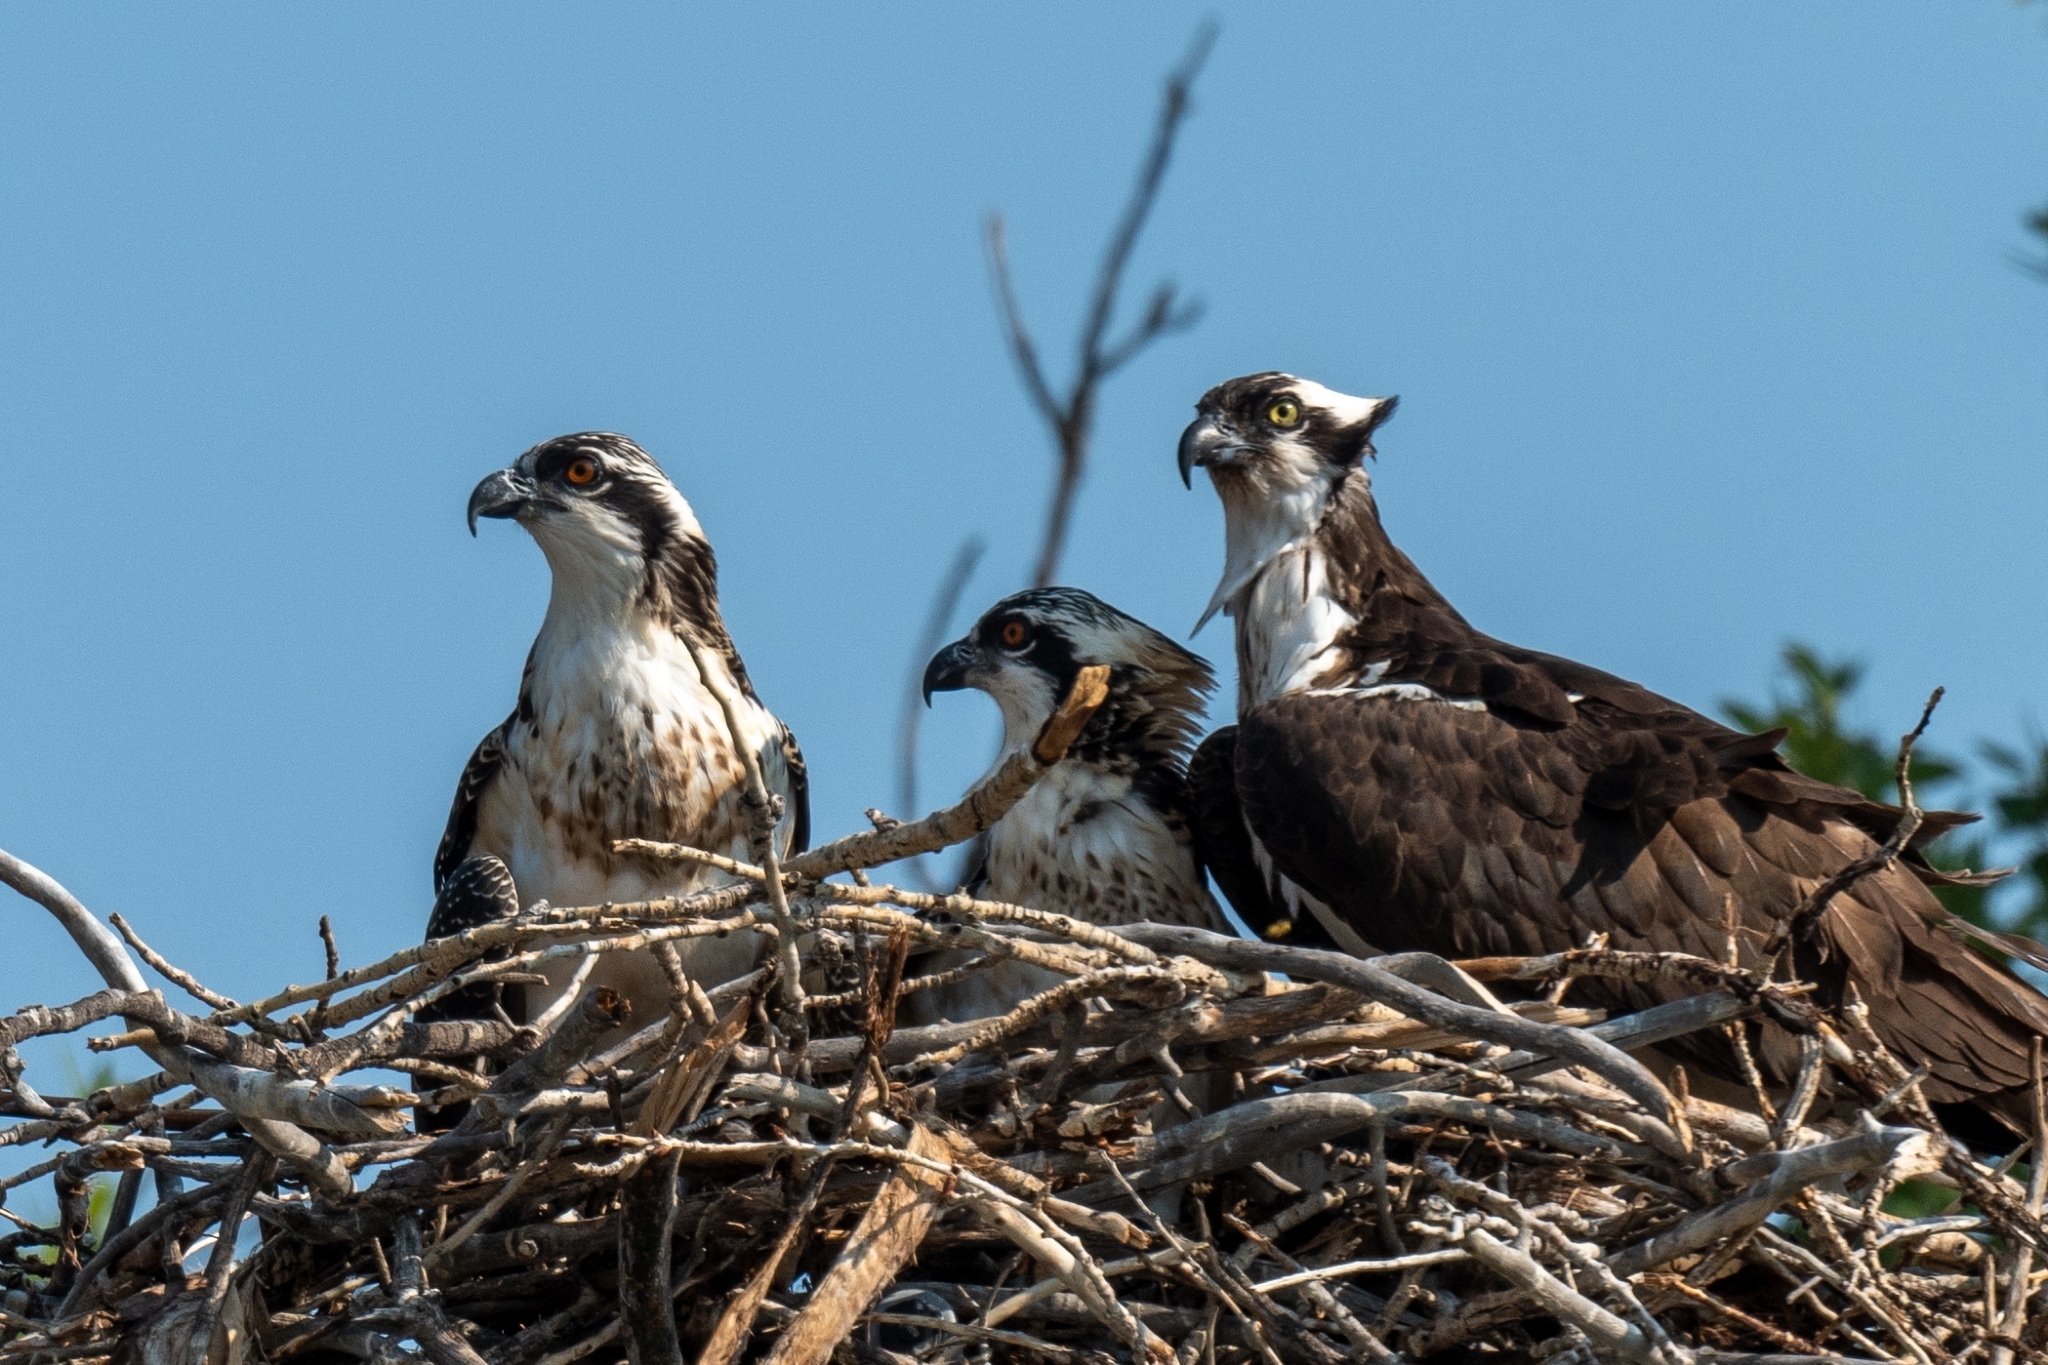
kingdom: Animalia
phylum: Chordata
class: Aves
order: Accipitriformes
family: Pandionidae
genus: Pandion
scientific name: Pandion haliaetus
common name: Osprey
